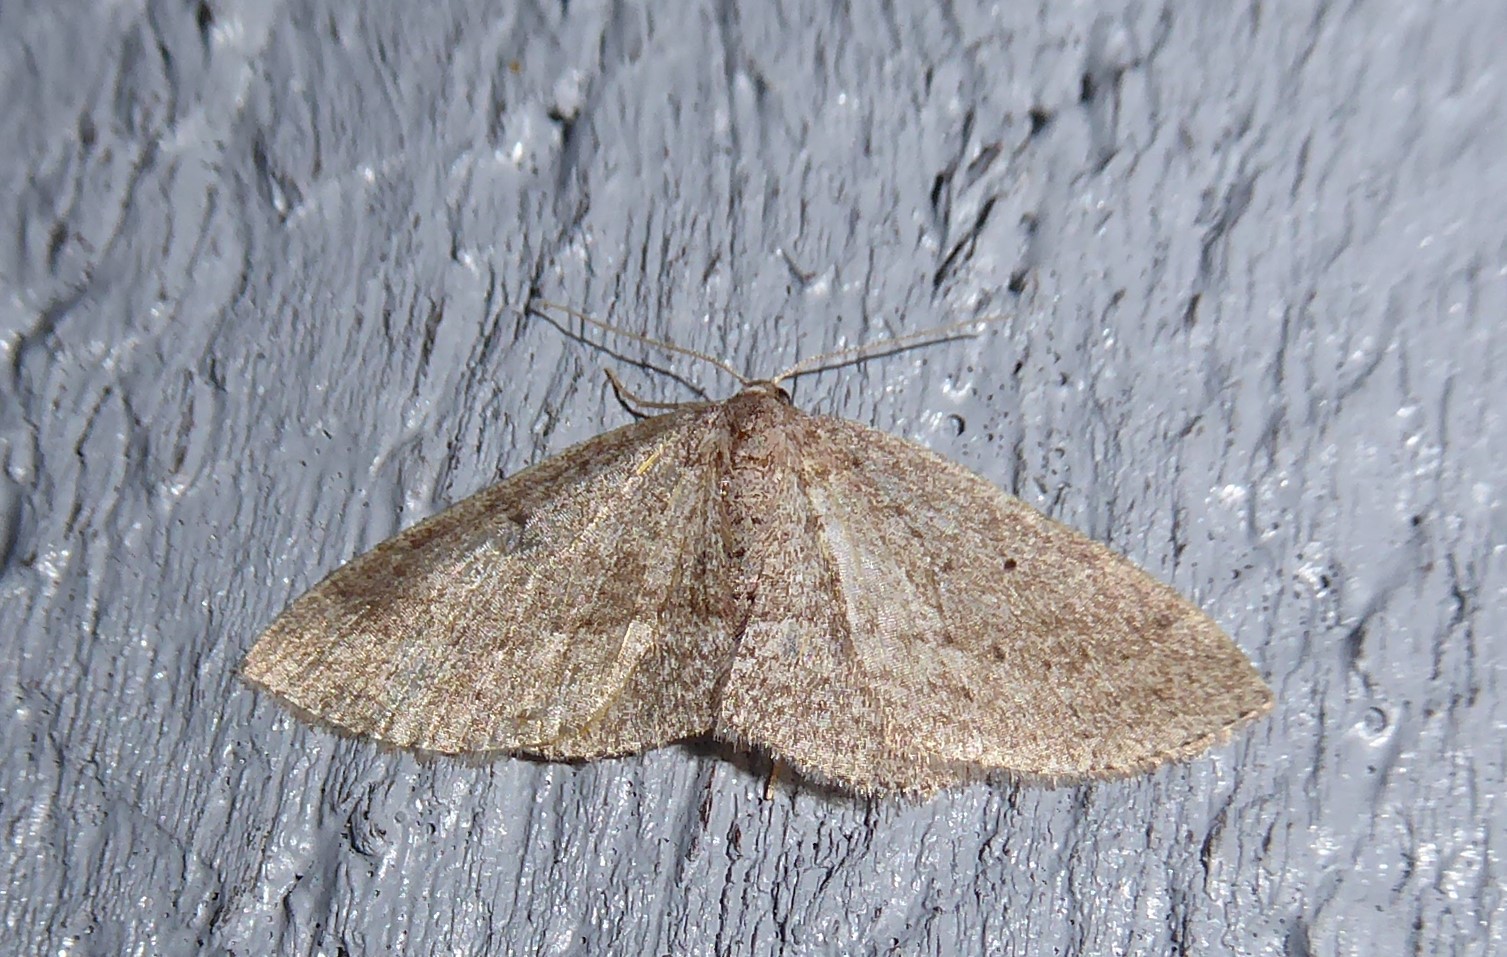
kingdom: Animalia
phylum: Arthropoda
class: Insecta
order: Lepidoptera
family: Geometridae
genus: Poecilasthena
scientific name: Poecilasthena schistaria
